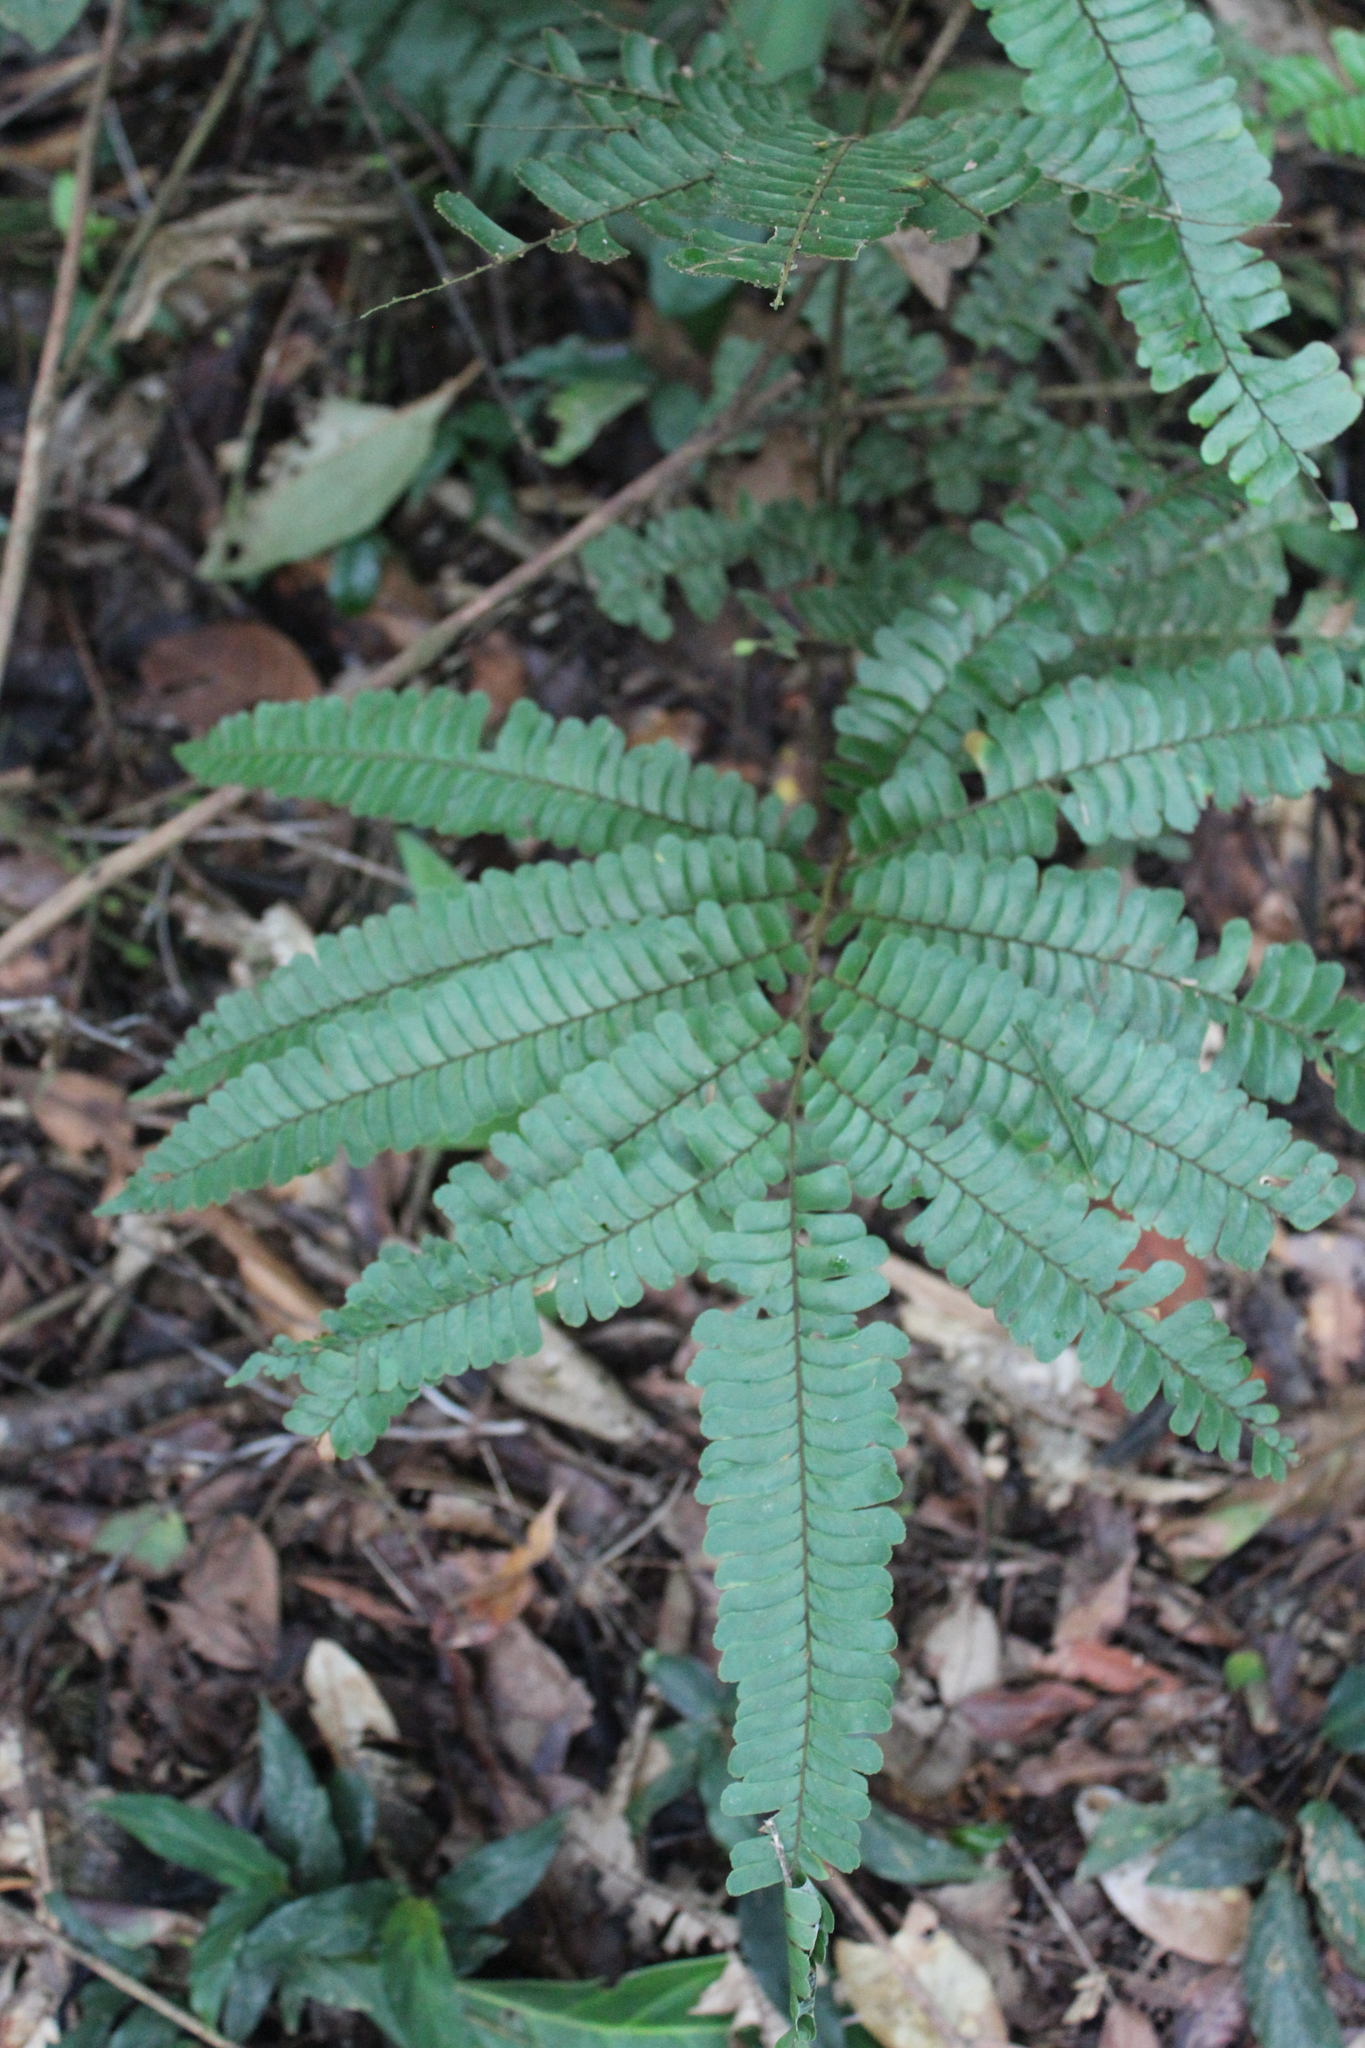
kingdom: Plantae
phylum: Tracheophyta
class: Polypodiopsida
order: Polypodiales
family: Pteridaceae
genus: Adiantum
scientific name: Adiantum tomentosum
